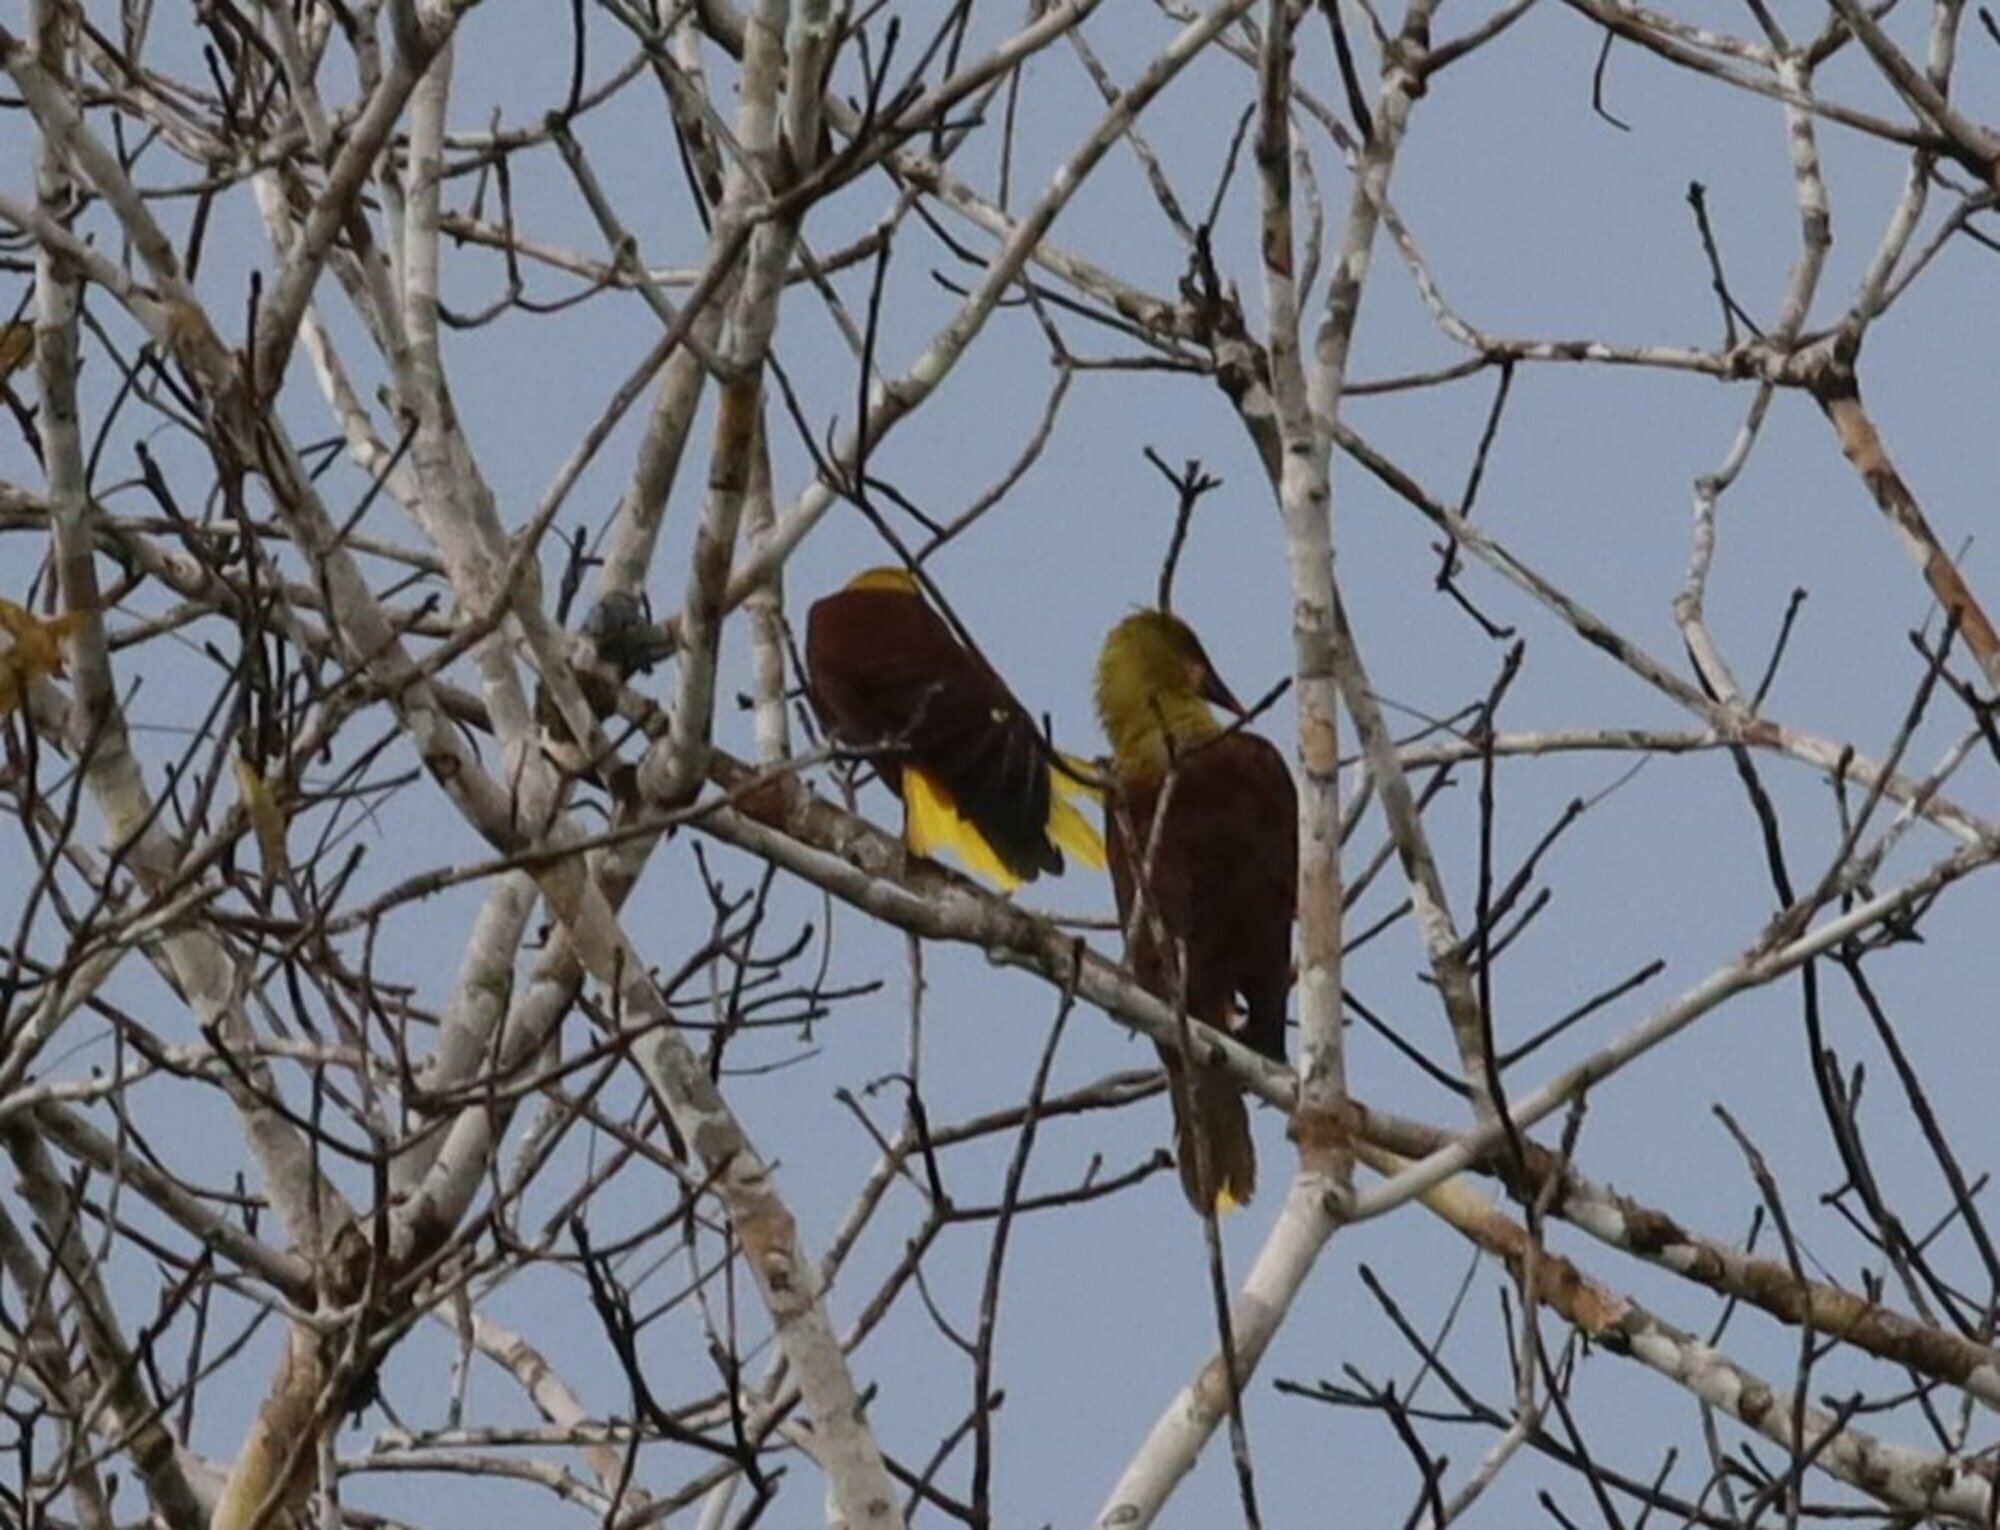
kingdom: Animalia
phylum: Chordata
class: Aves
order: Passeriformes
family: Icteridae
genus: Psarocolius
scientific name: Psarocolius bifasciatus
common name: Olive oropendola
